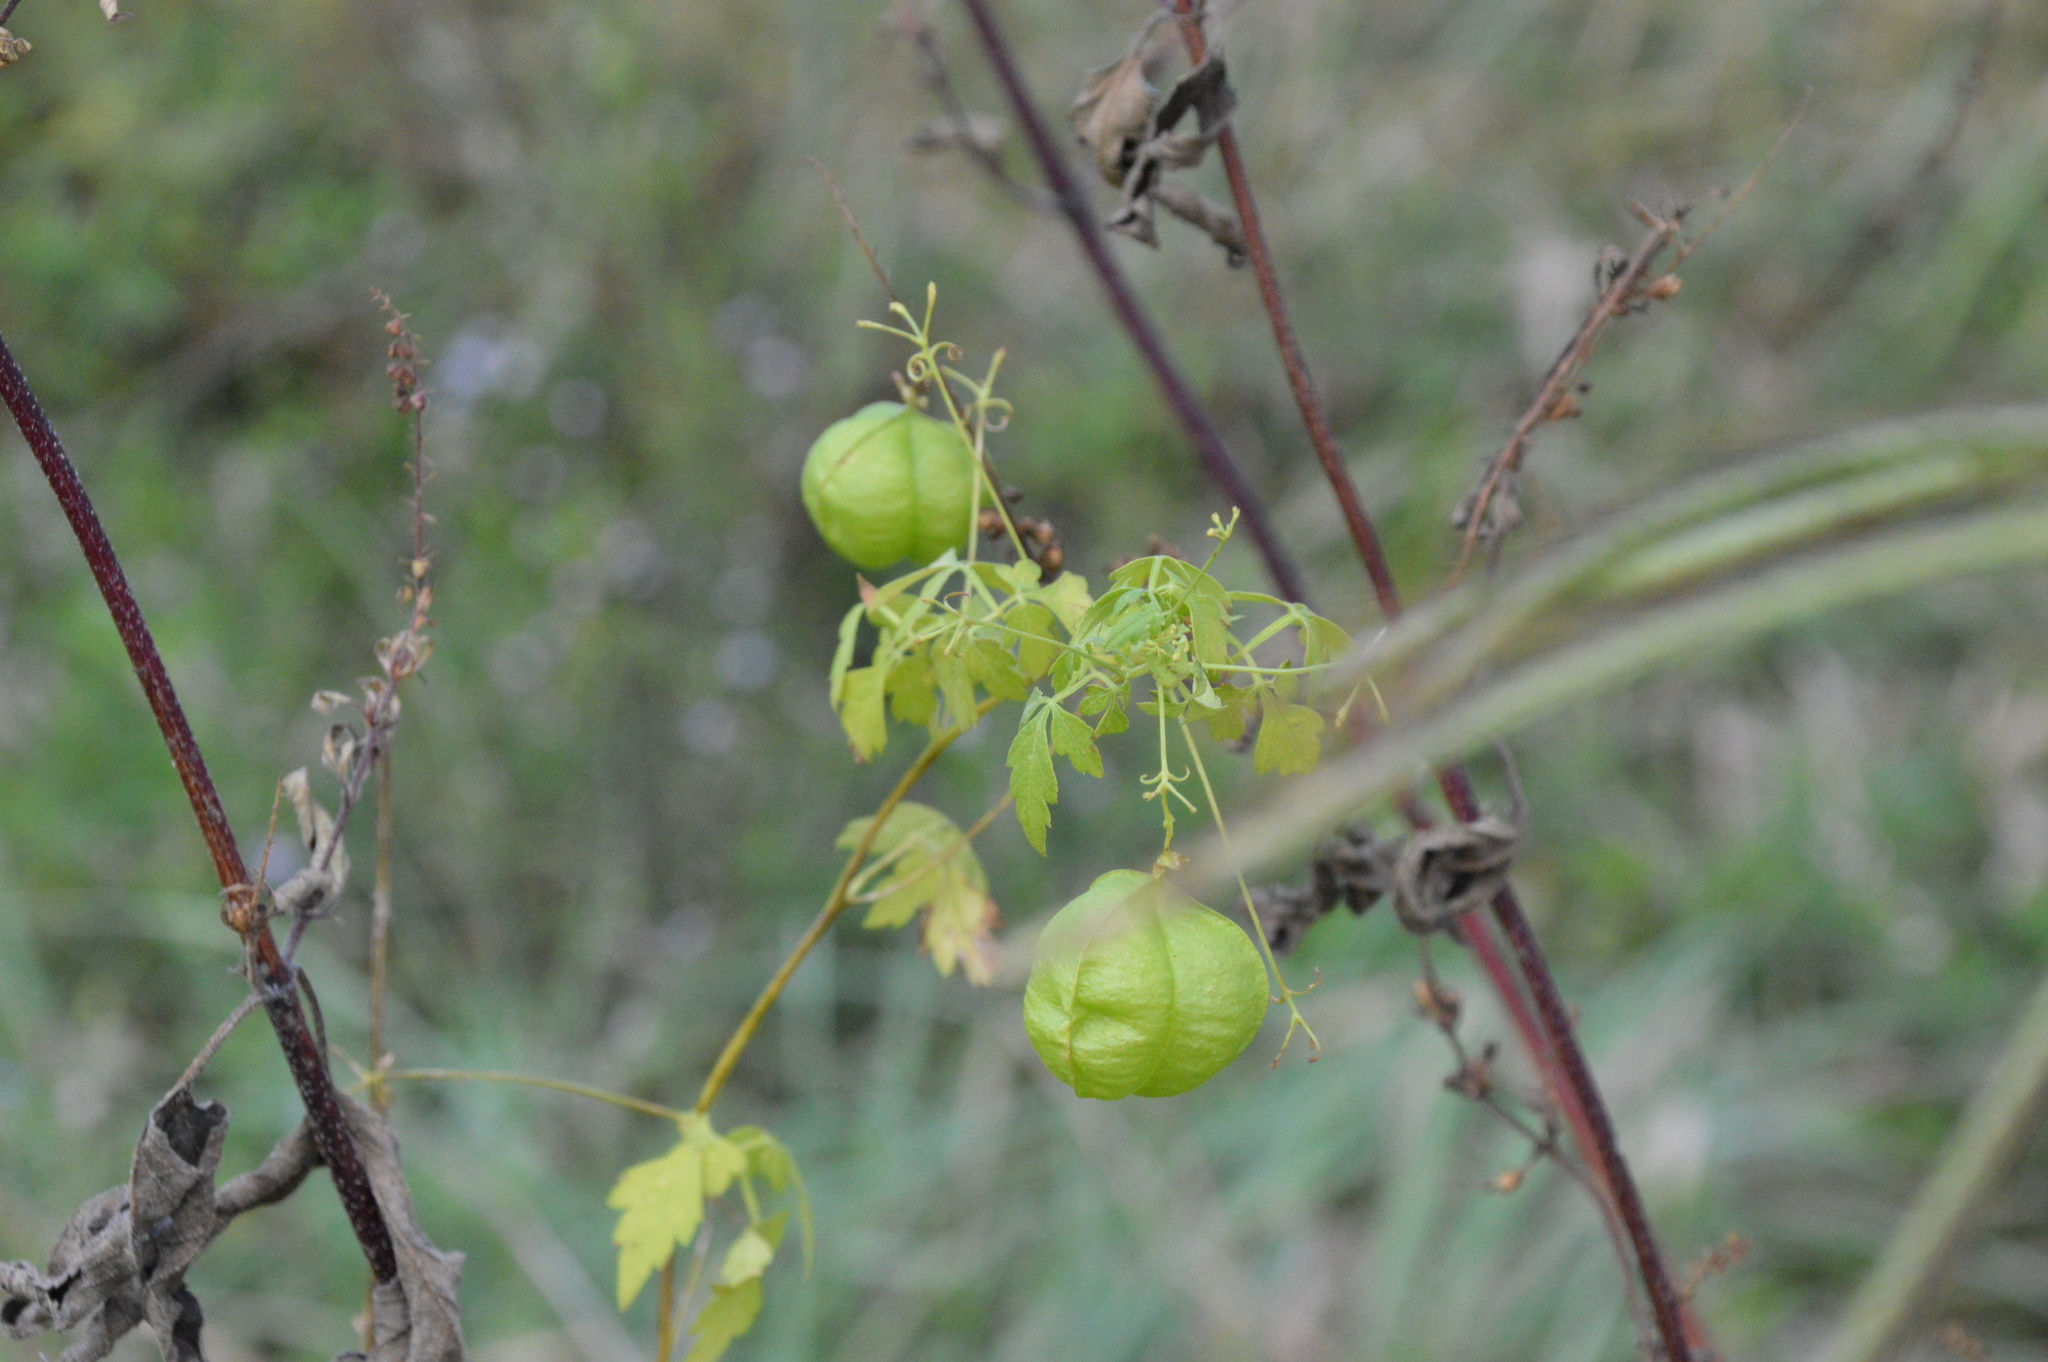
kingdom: Plantae
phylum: Tracheophyta
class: Magnoliopsida
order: Sapindales
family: Sapindaceae
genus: Cardiospermum
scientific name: Cardiospermum halicacabum
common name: Balloon vine
